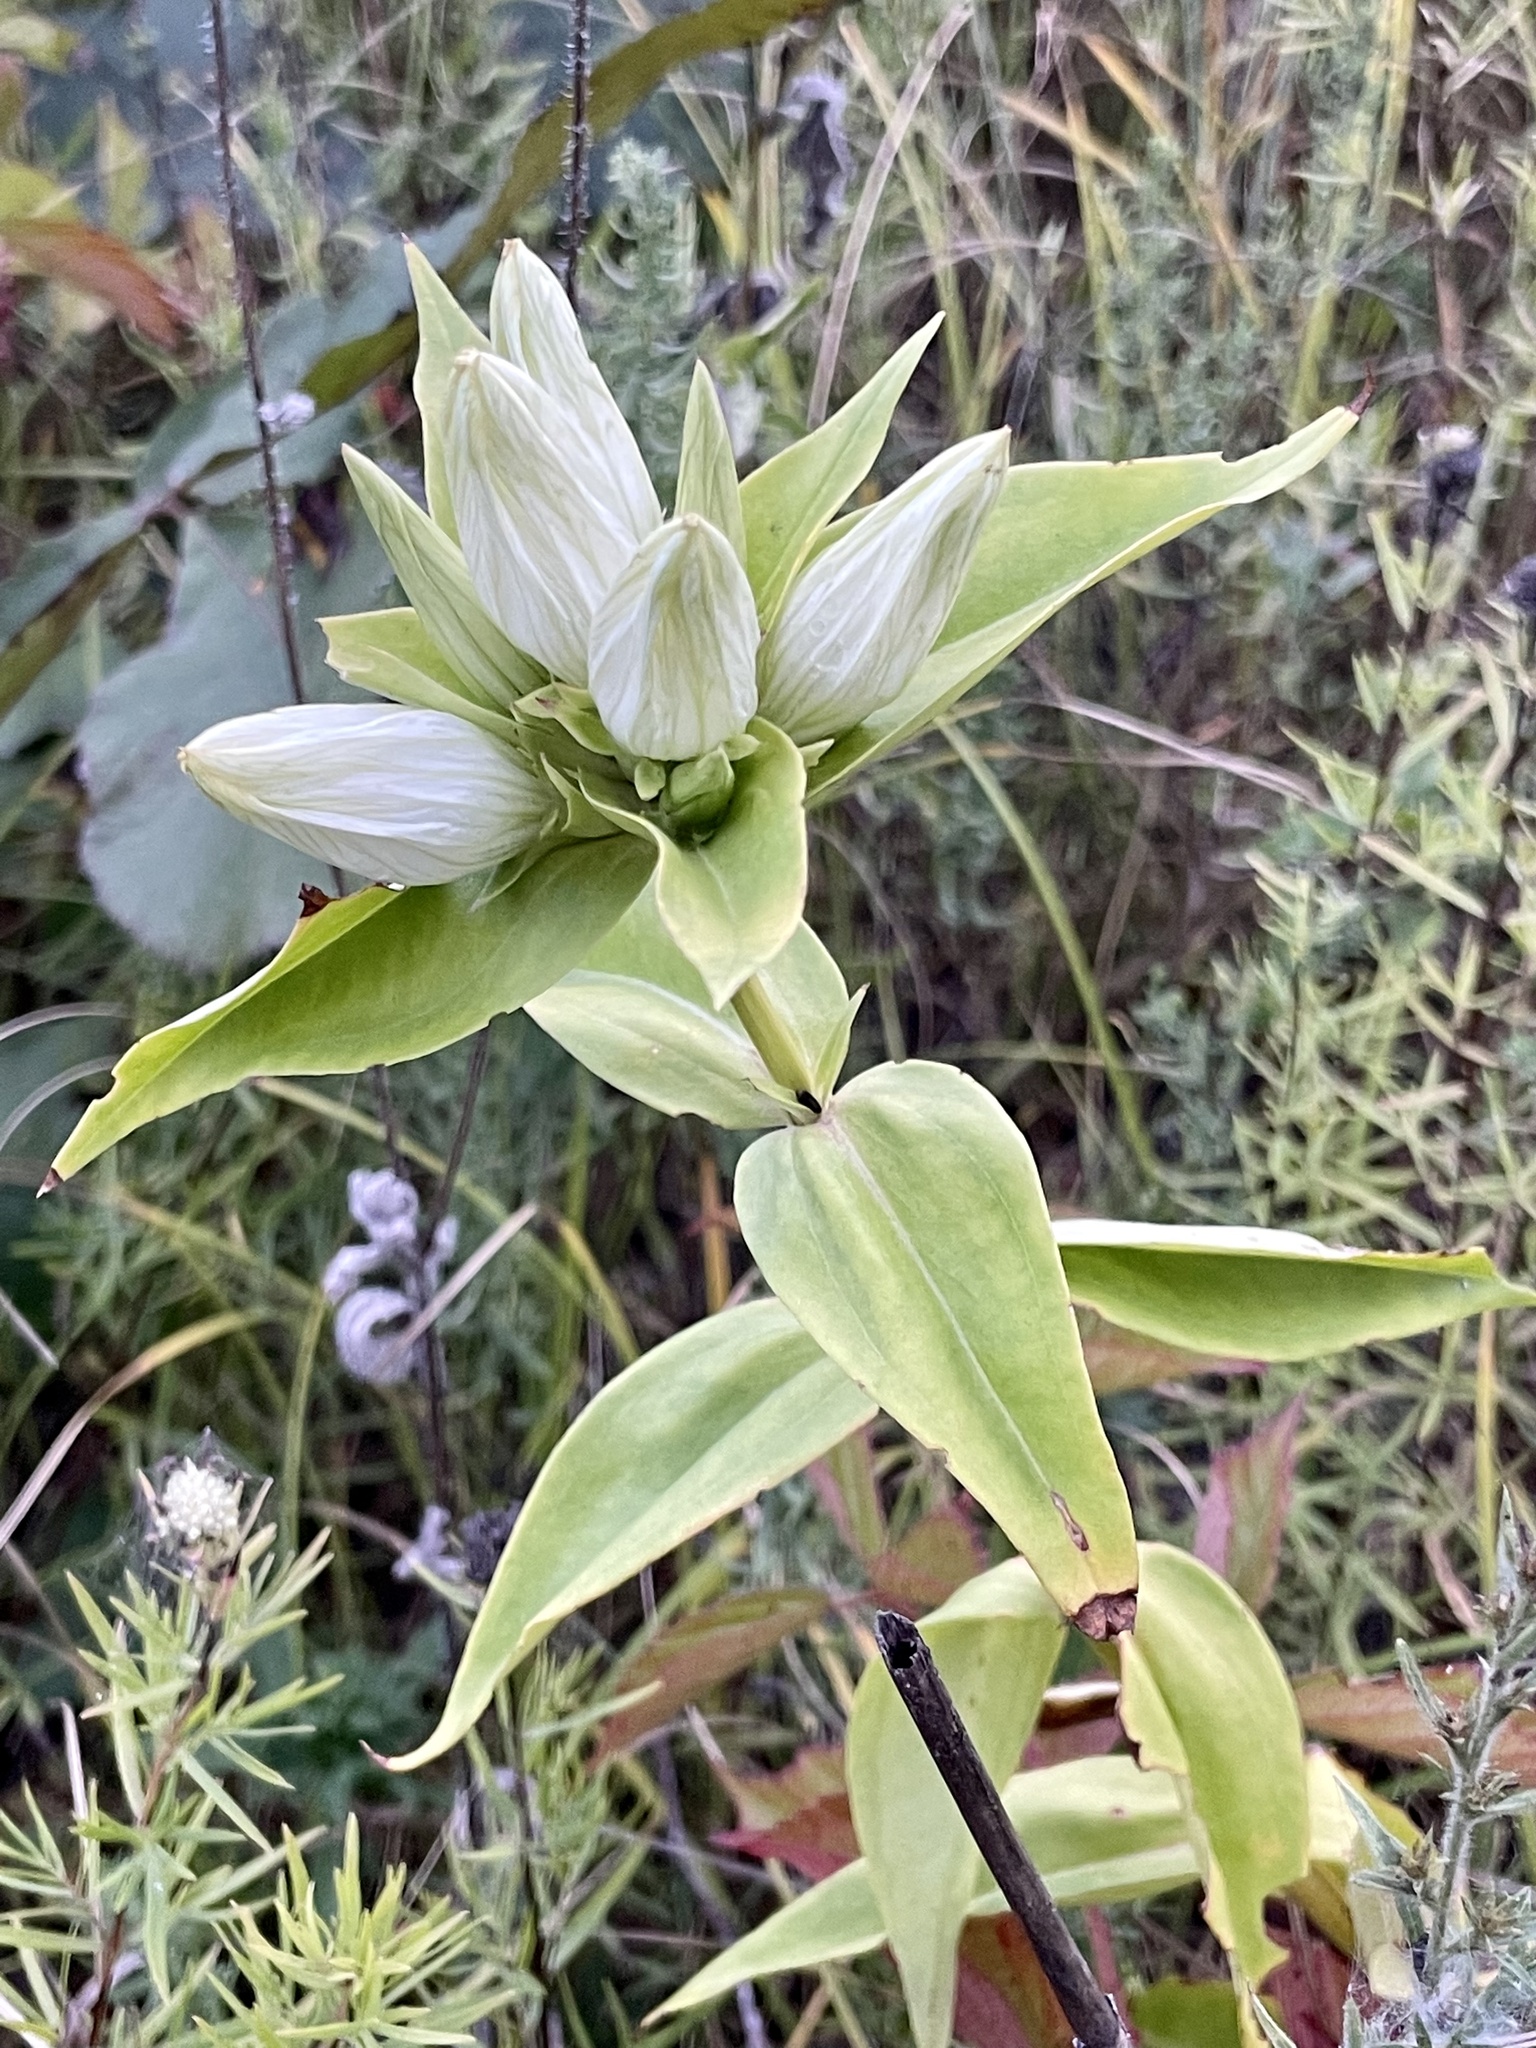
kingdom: Plantae
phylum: Tracheophyta
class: Magnoliopsida
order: Gentianales
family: Gentianaceae
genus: Gentiana
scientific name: Gentiana alba
